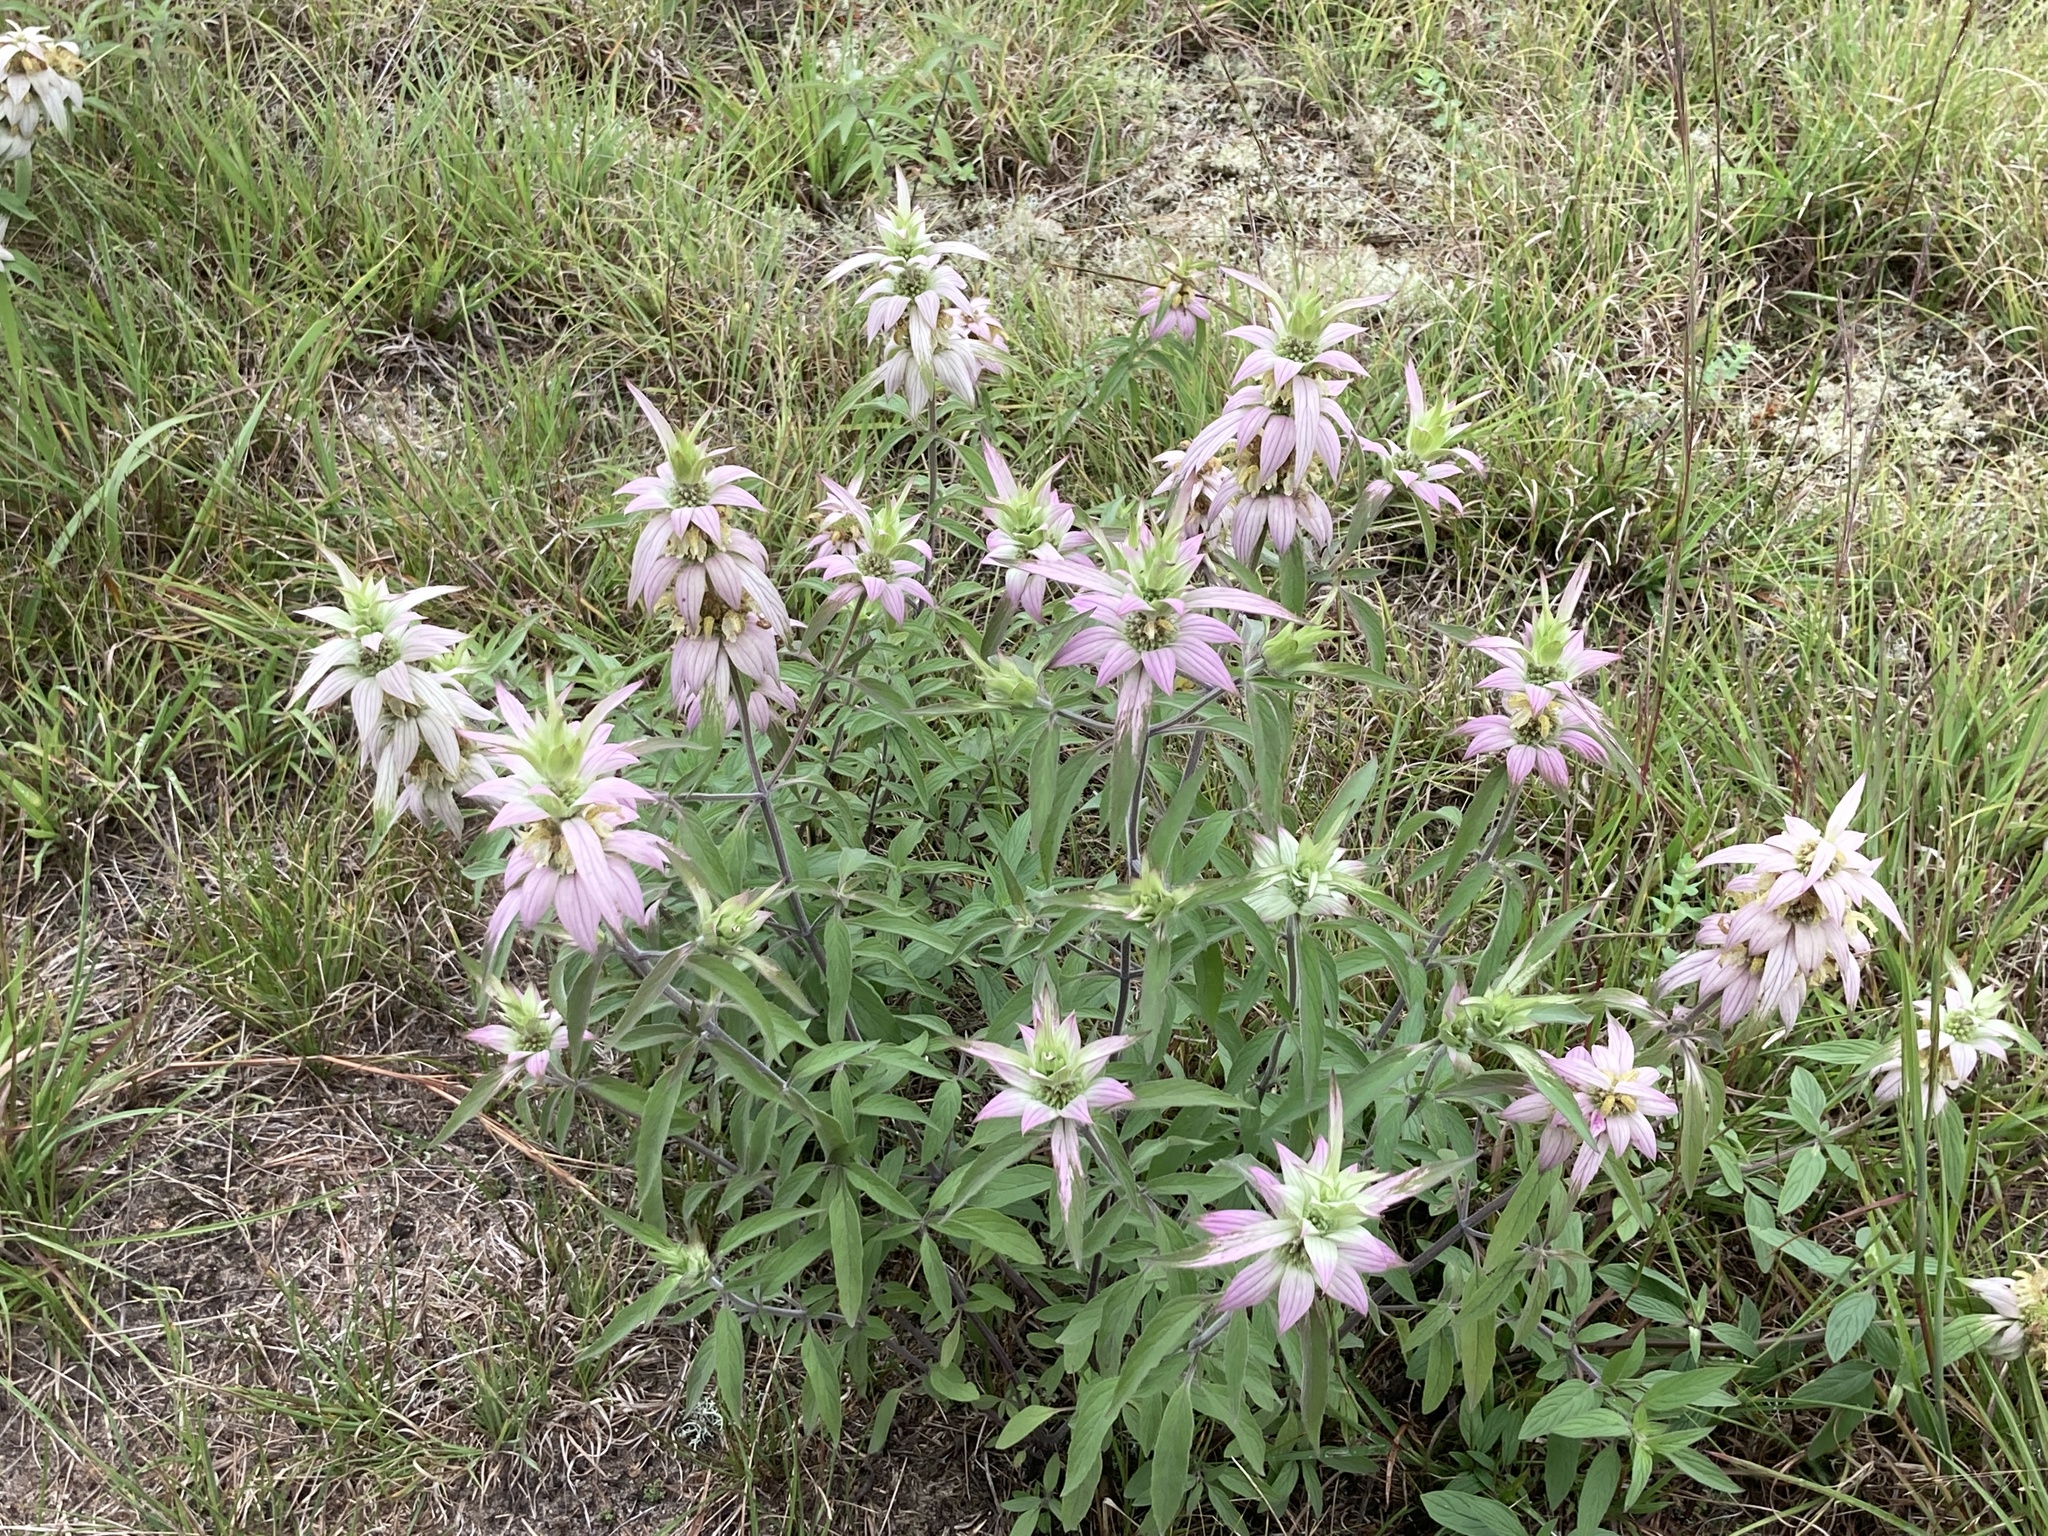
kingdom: Plantae
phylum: Tracheophyta
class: Magnoliopsida
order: Lamiales
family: Lamiaceae
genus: Monarda
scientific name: Monarda punctata
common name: Dotted monarda
